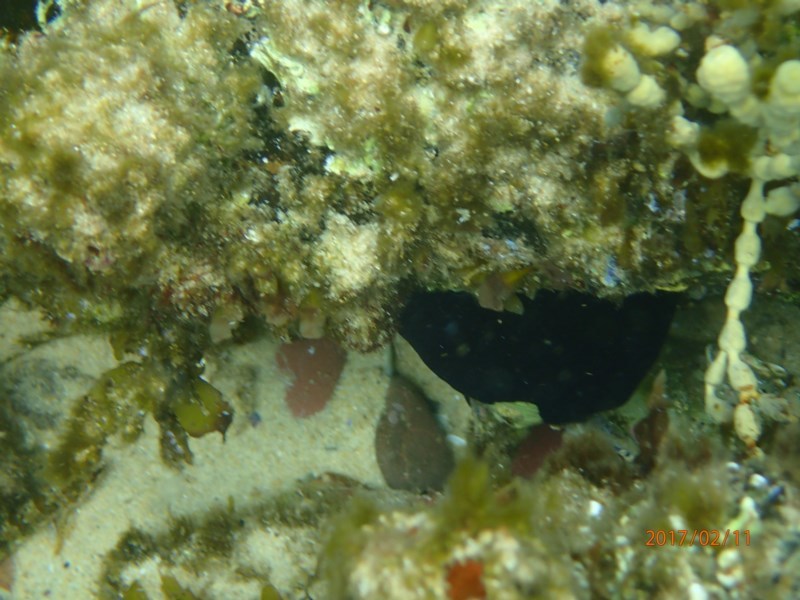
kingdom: Animalia
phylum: Mollusca
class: Gastropoda
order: Lepetellida
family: Fissurellidae
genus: Scutus
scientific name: Scutus antipodes
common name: Duckbill shell
